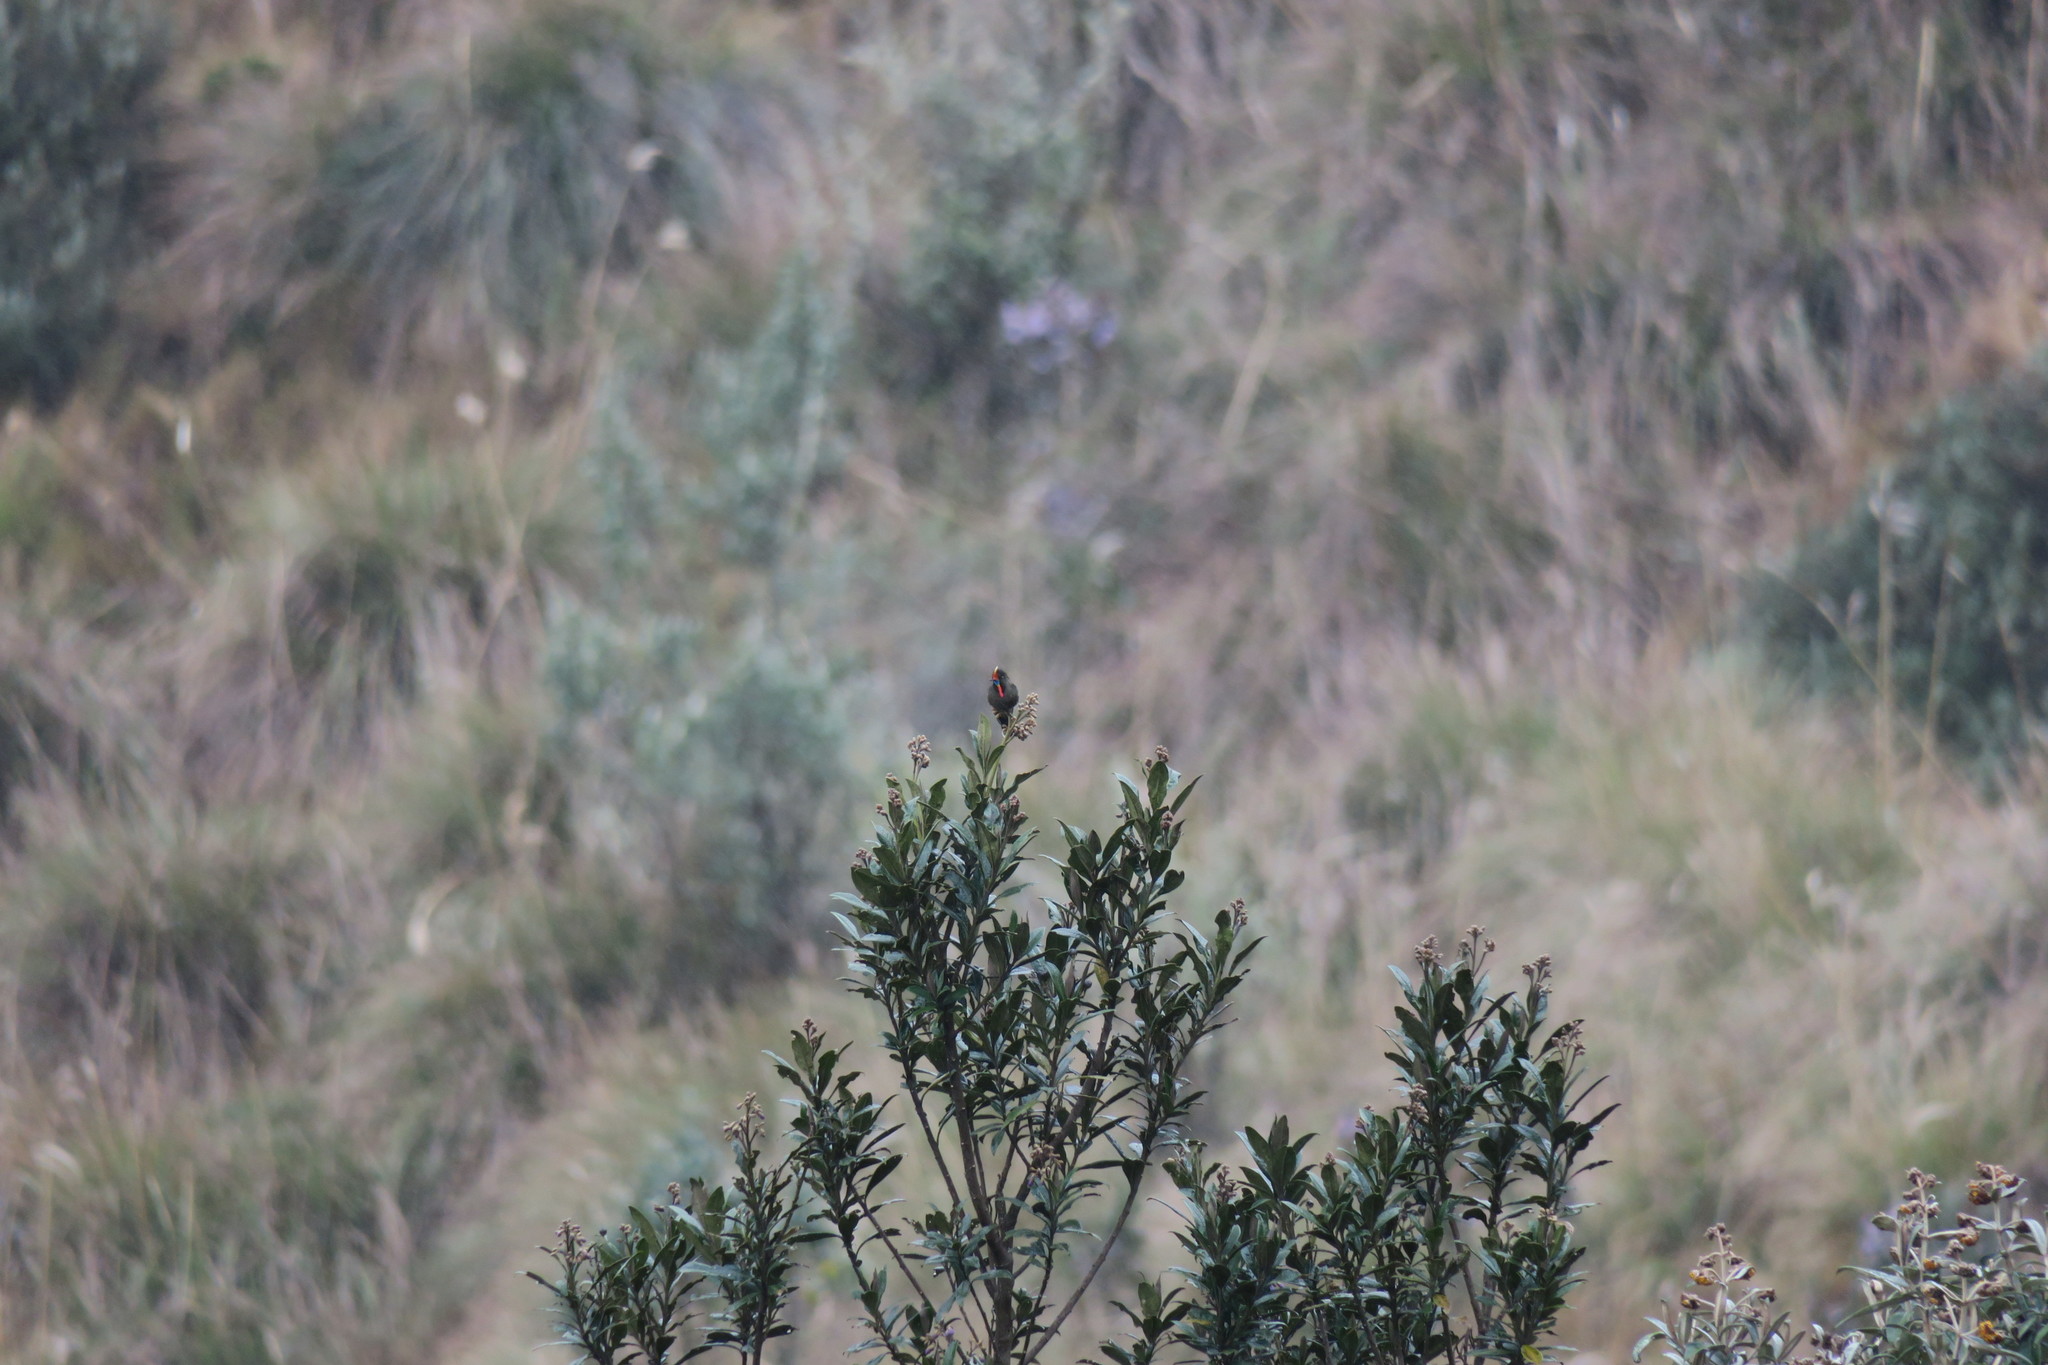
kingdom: Animalia
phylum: Chordata
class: Aves
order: Apodiformes
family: Trochilidae
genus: Chalcostigma
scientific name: Chalcostigma herrani
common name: Rainbow-bearded thornbill
